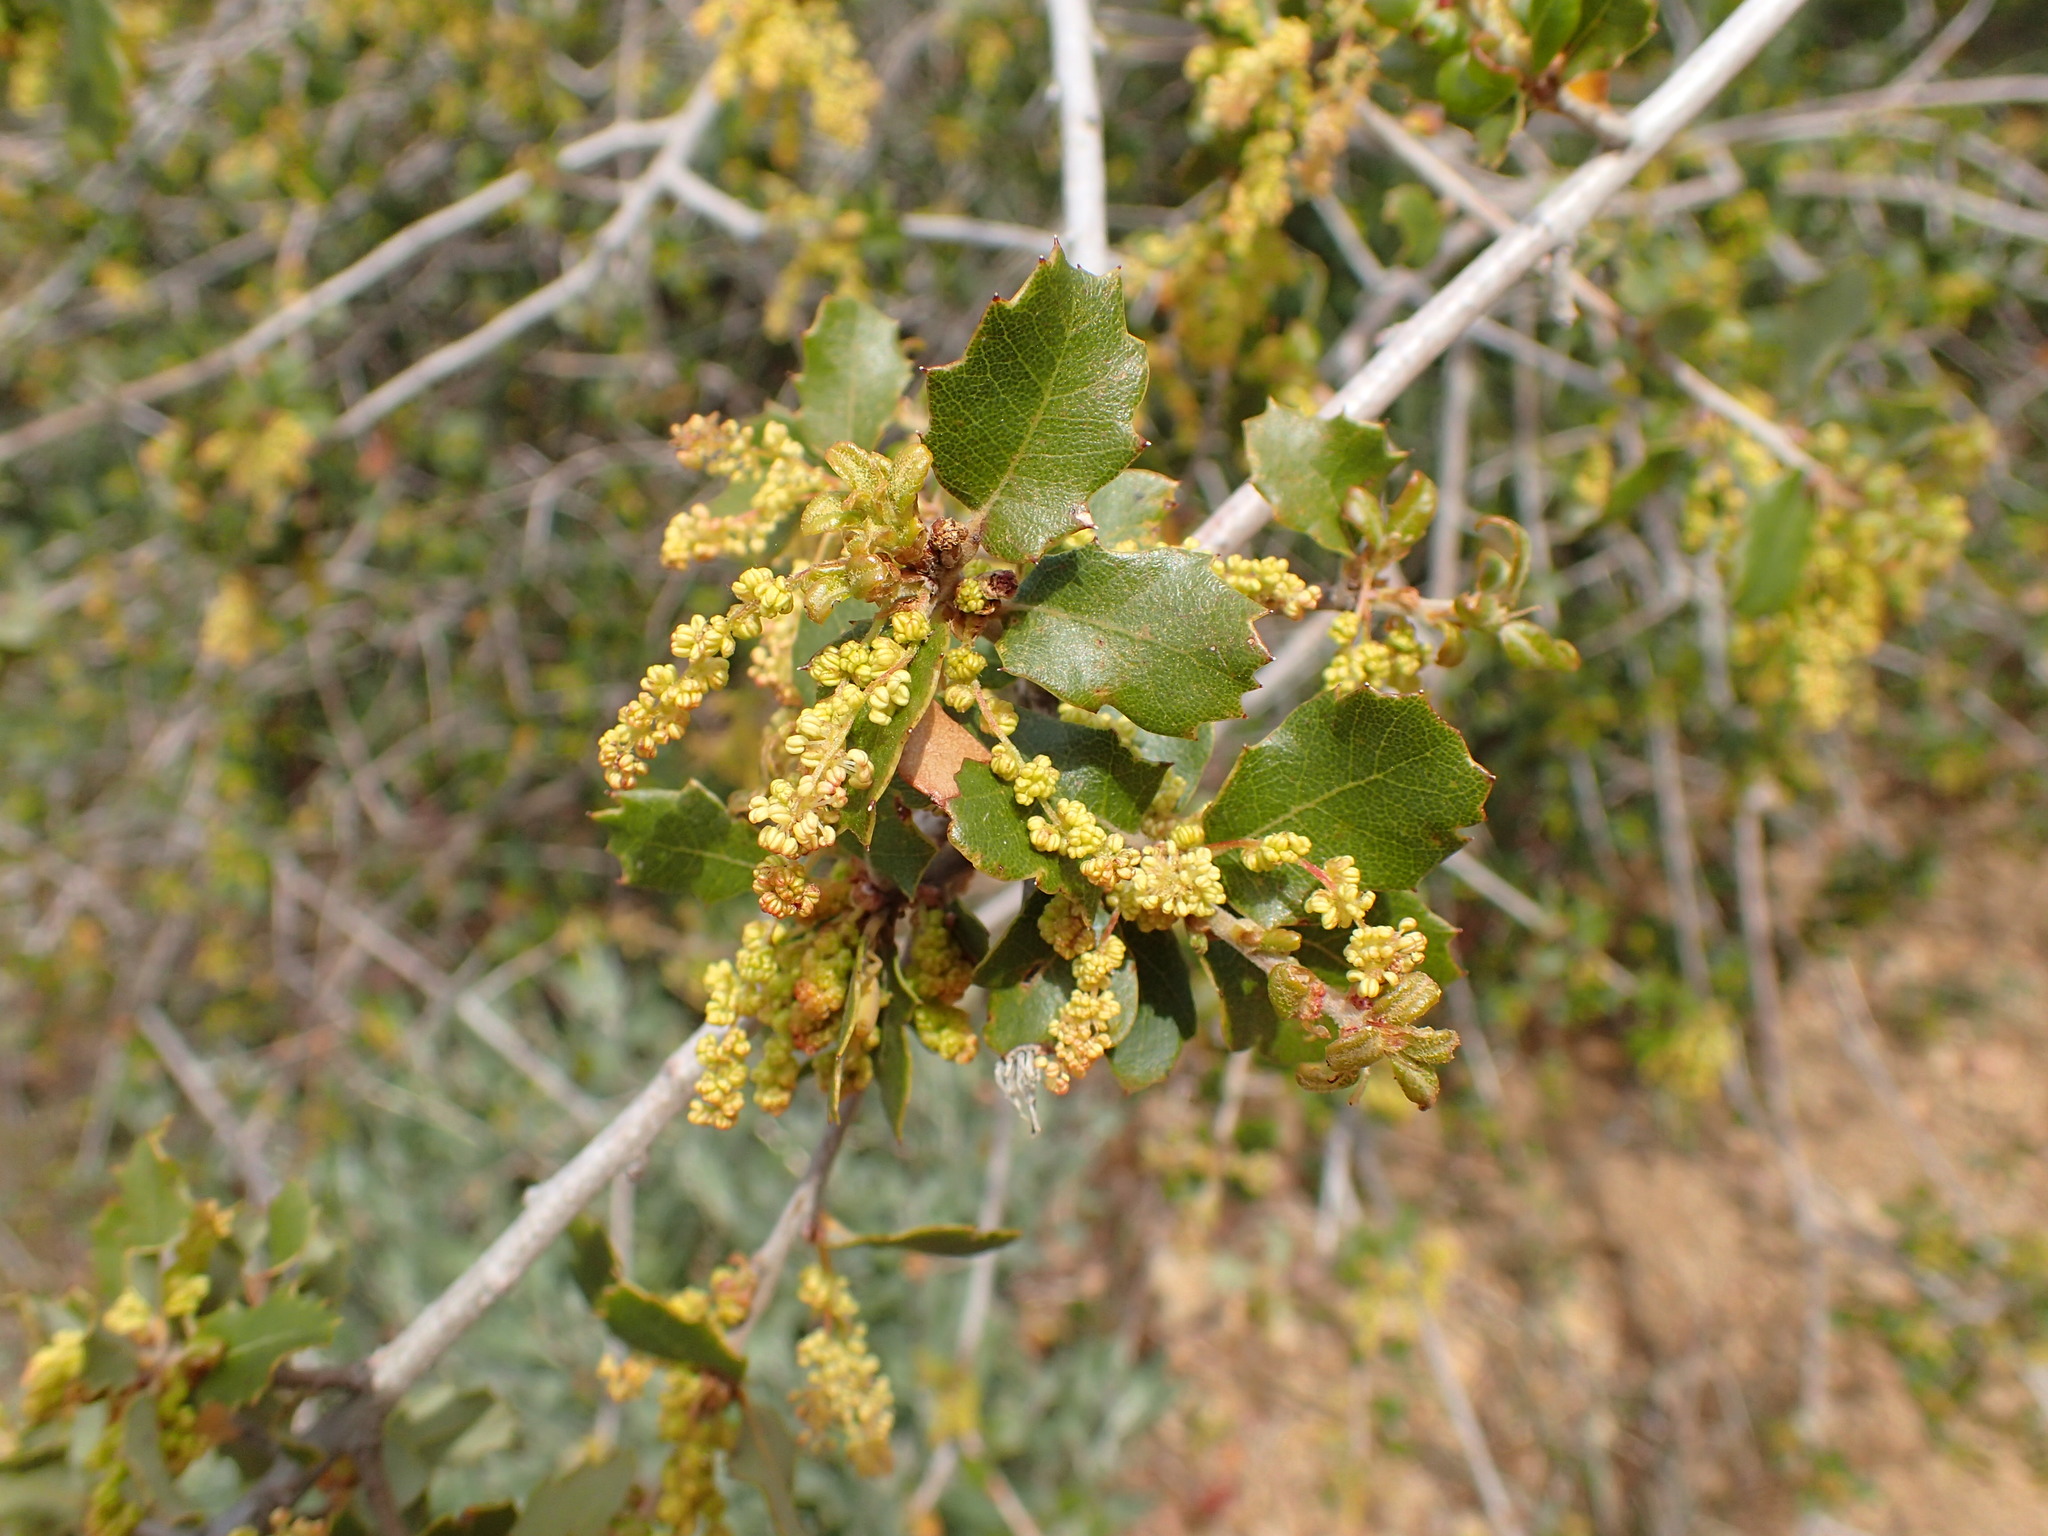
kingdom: Plantae
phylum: Tracheophyta
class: Magnoliopsida
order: Fagales
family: Fagaceae
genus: Quercus
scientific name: Quercus berberidifolia
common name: California scrub oak
